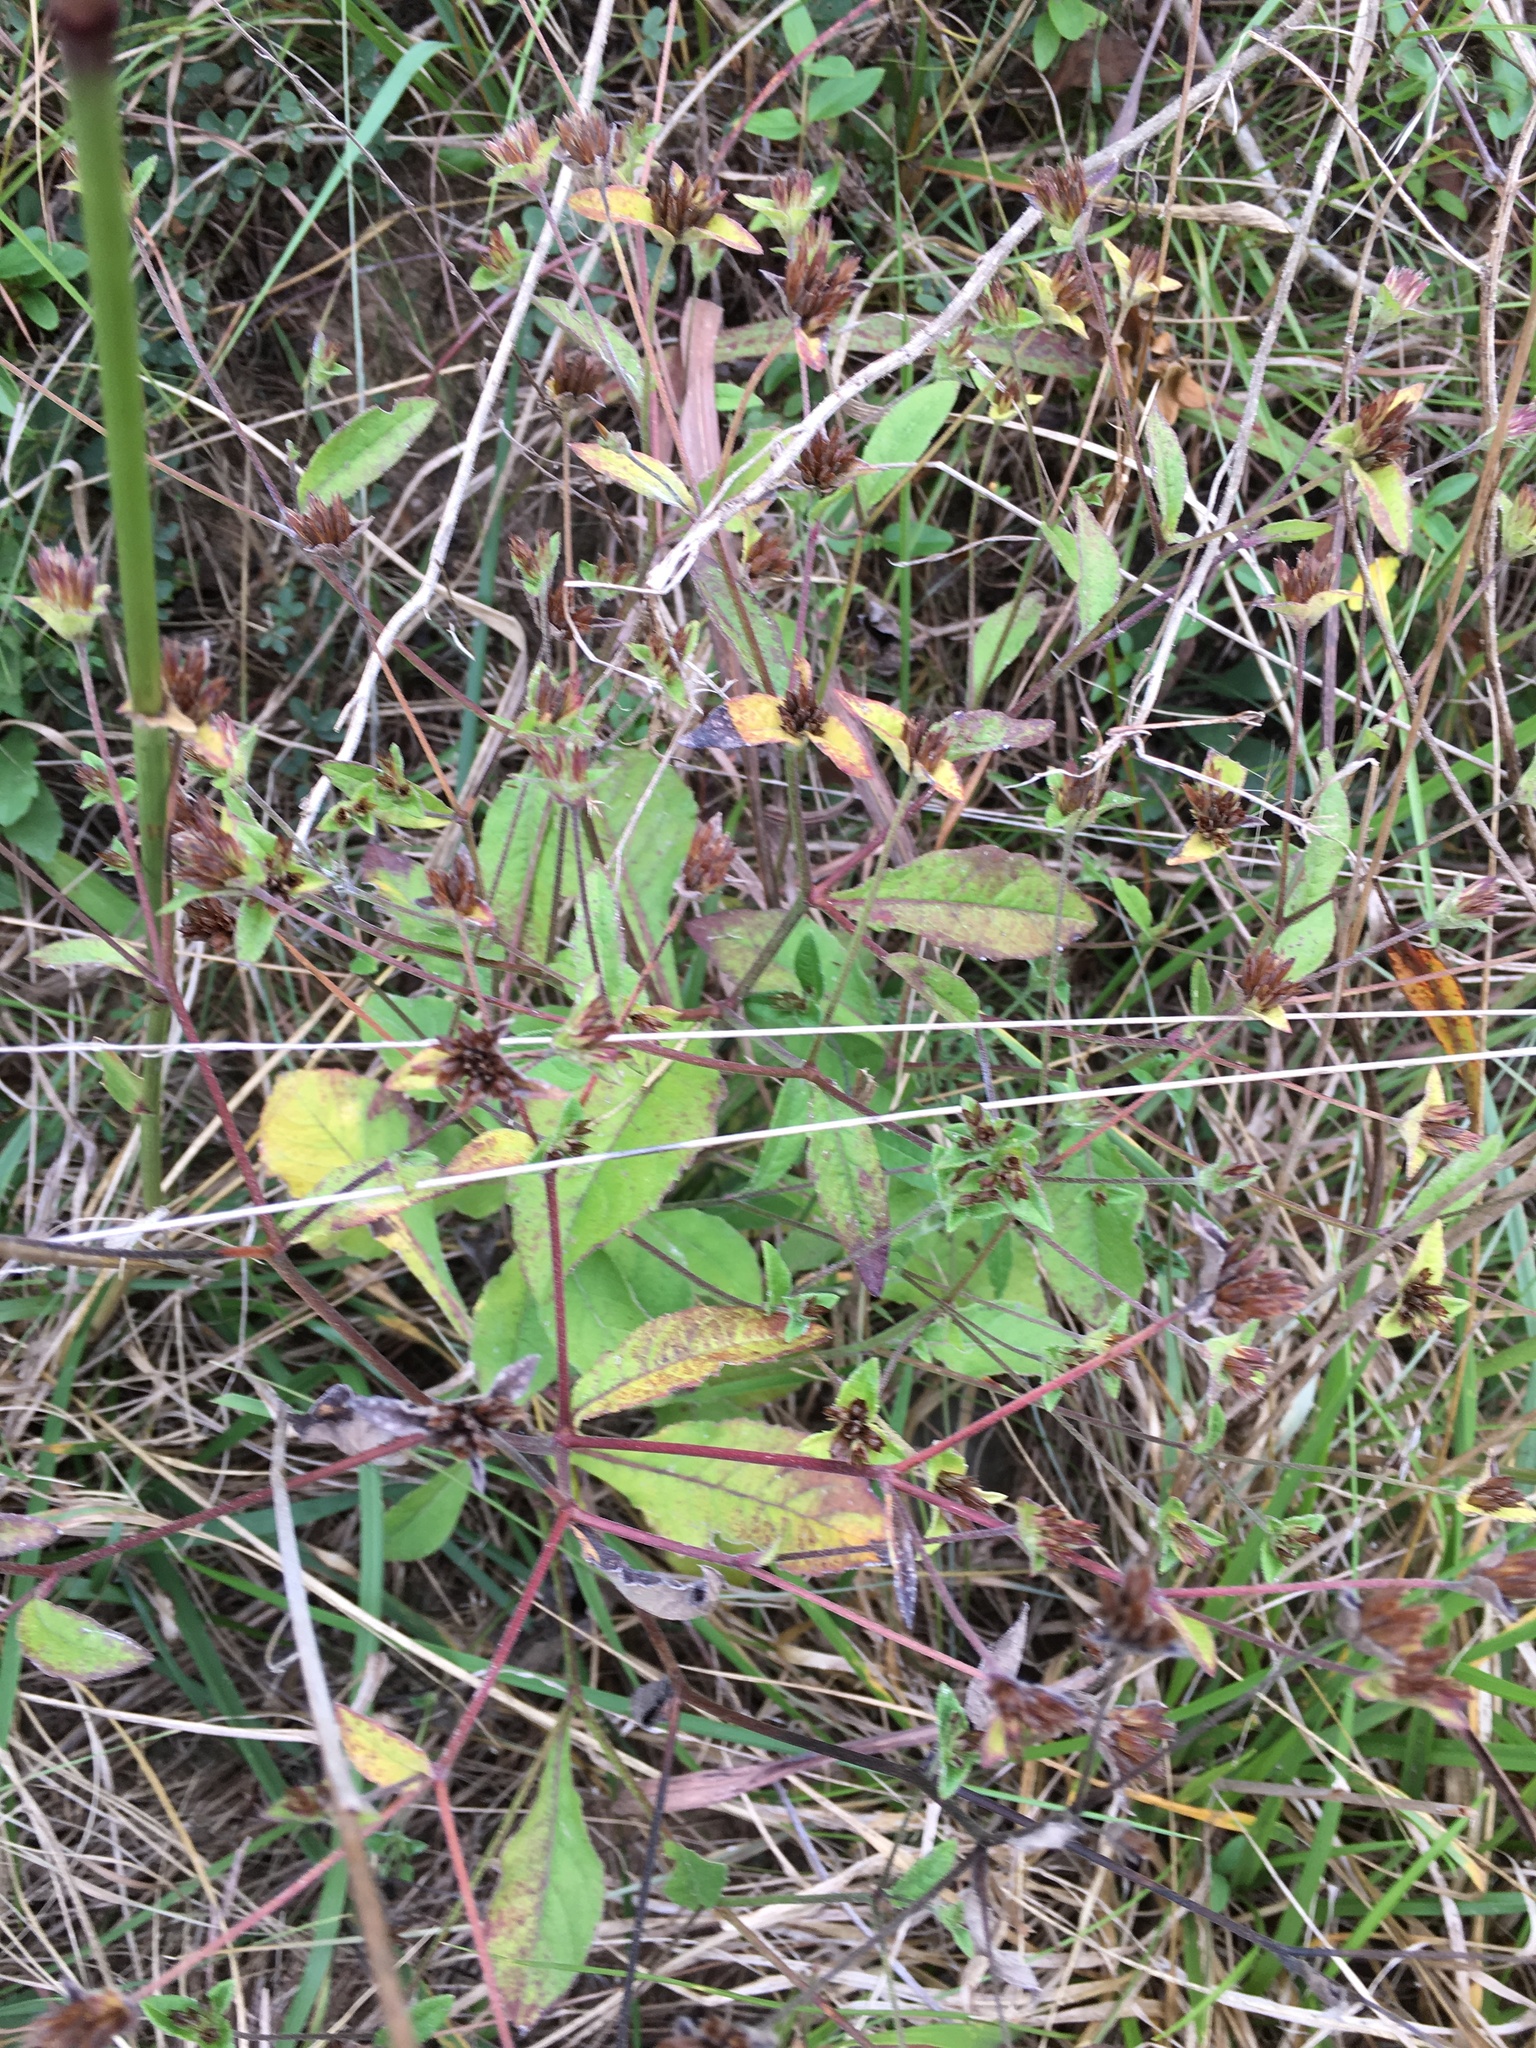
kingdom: Plantae
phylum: Tracheophyta
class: Magnoliopsida
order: Asterales
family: Asteraceae
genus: Elephantopus
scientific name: Elephantopus carolinianus
